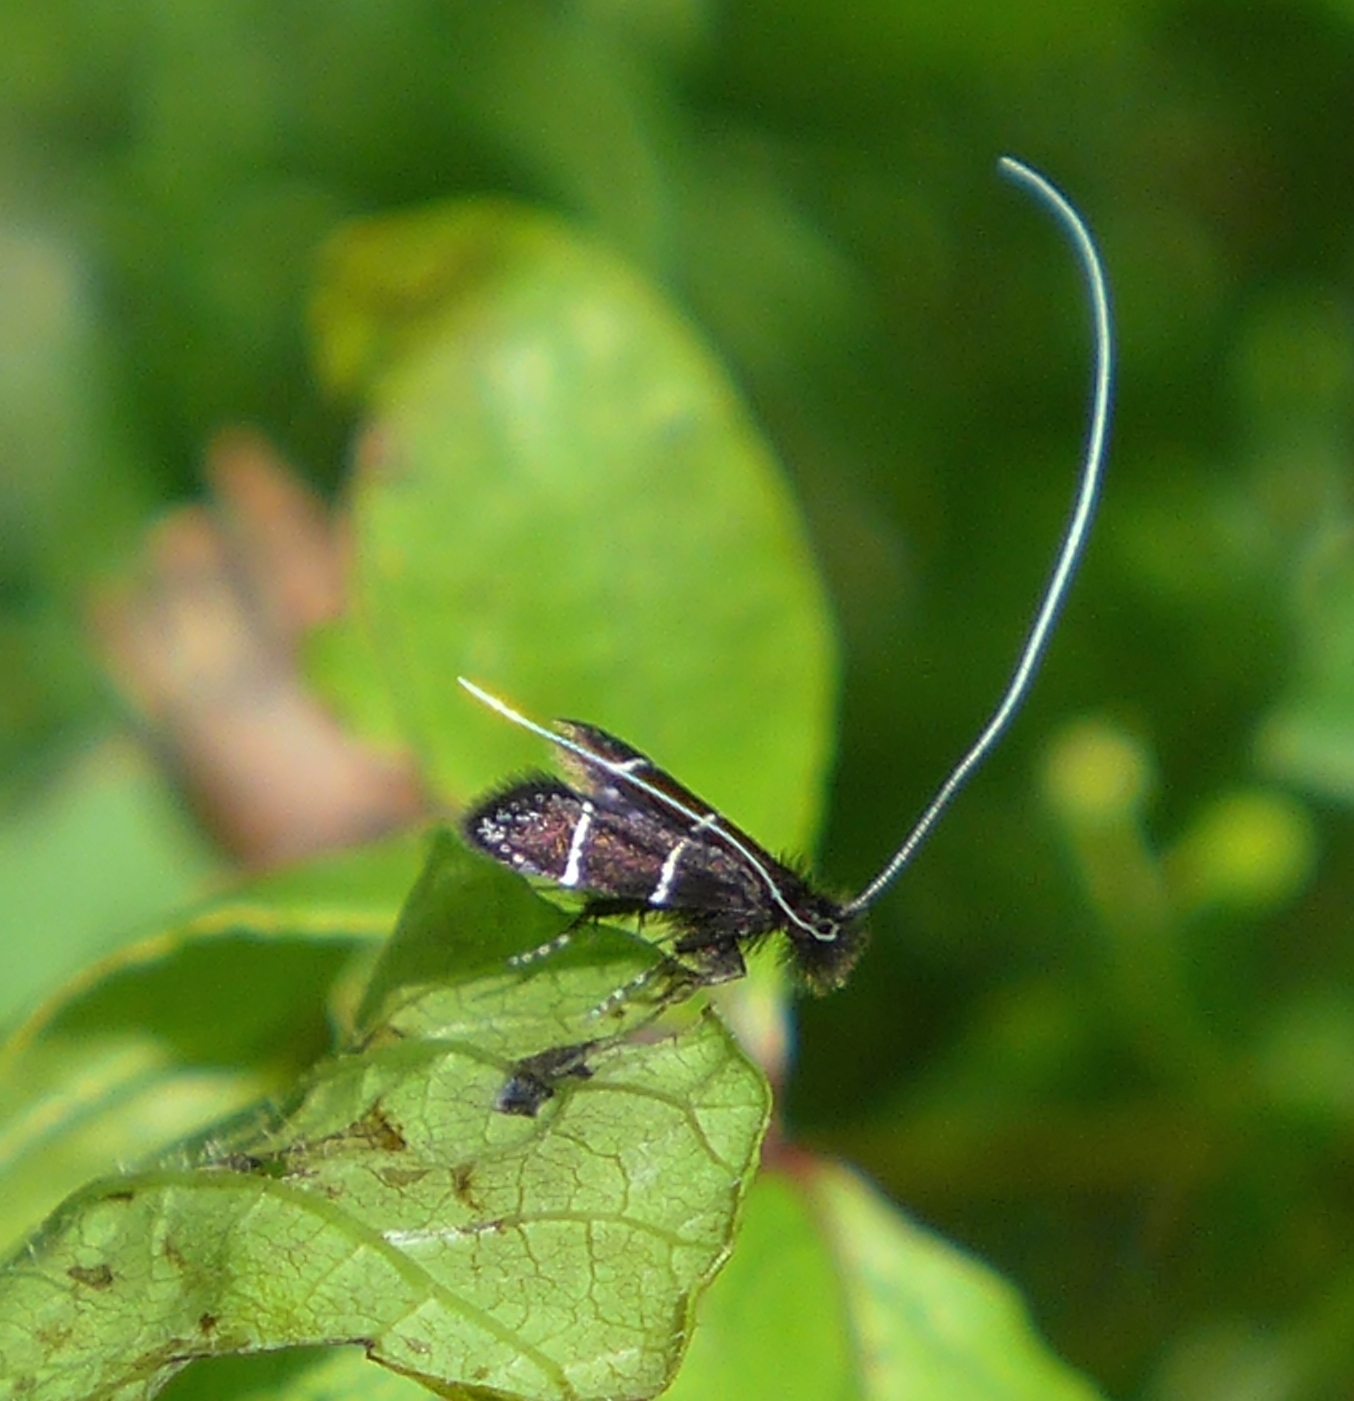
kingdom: Animalia
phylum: Arthropoda
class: Insecta
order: Lepidoptera
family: Adelidae
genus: Adela
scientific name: Adela septentrionella
